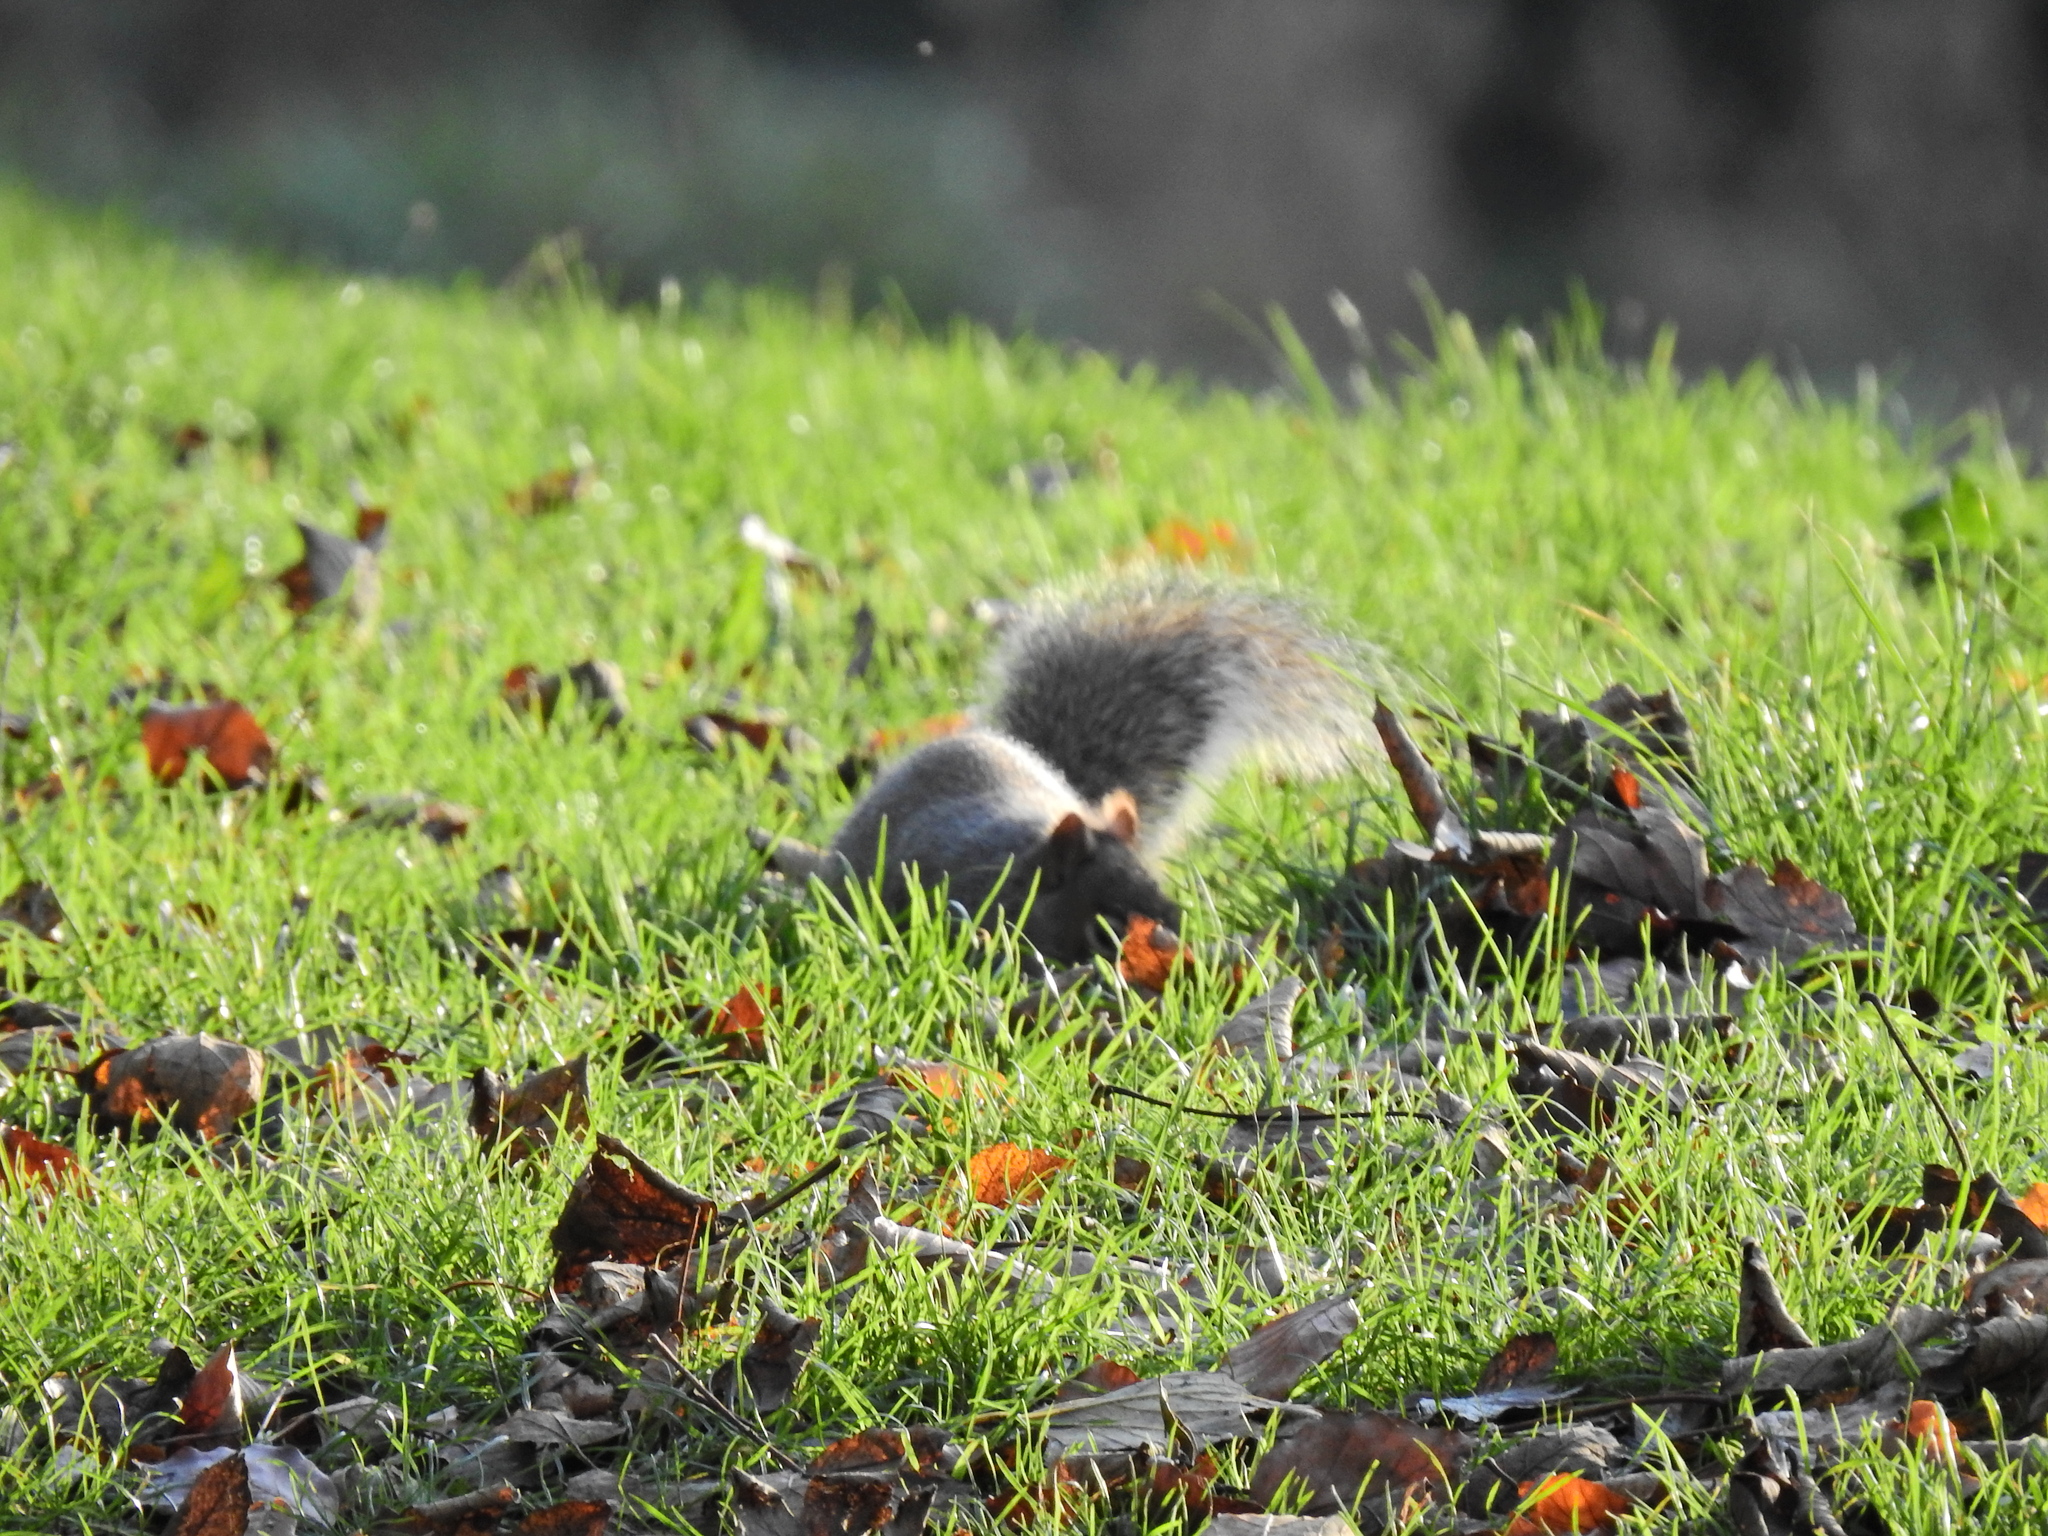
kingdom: Animalia
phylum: Chordata
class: Mammalia
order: Rodentia
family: Sciuridae
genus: Sciurus
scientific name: Sciurus carolinensis
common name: Eastern gray squirrel
